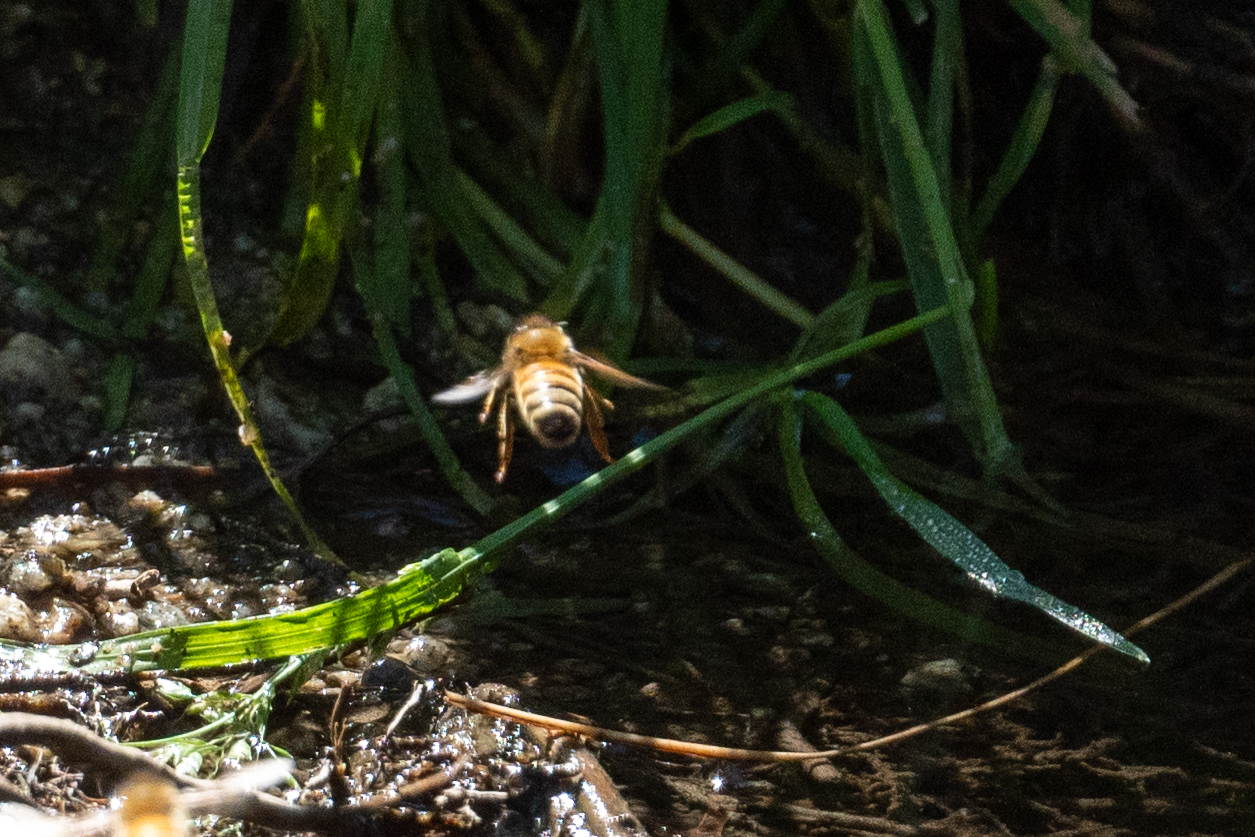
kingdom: Animalia
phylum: Arthropoda
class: Insecta
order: Hymenoptera
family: Apidae
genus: Apis
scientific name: Apis mellifera
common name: Honey bee
